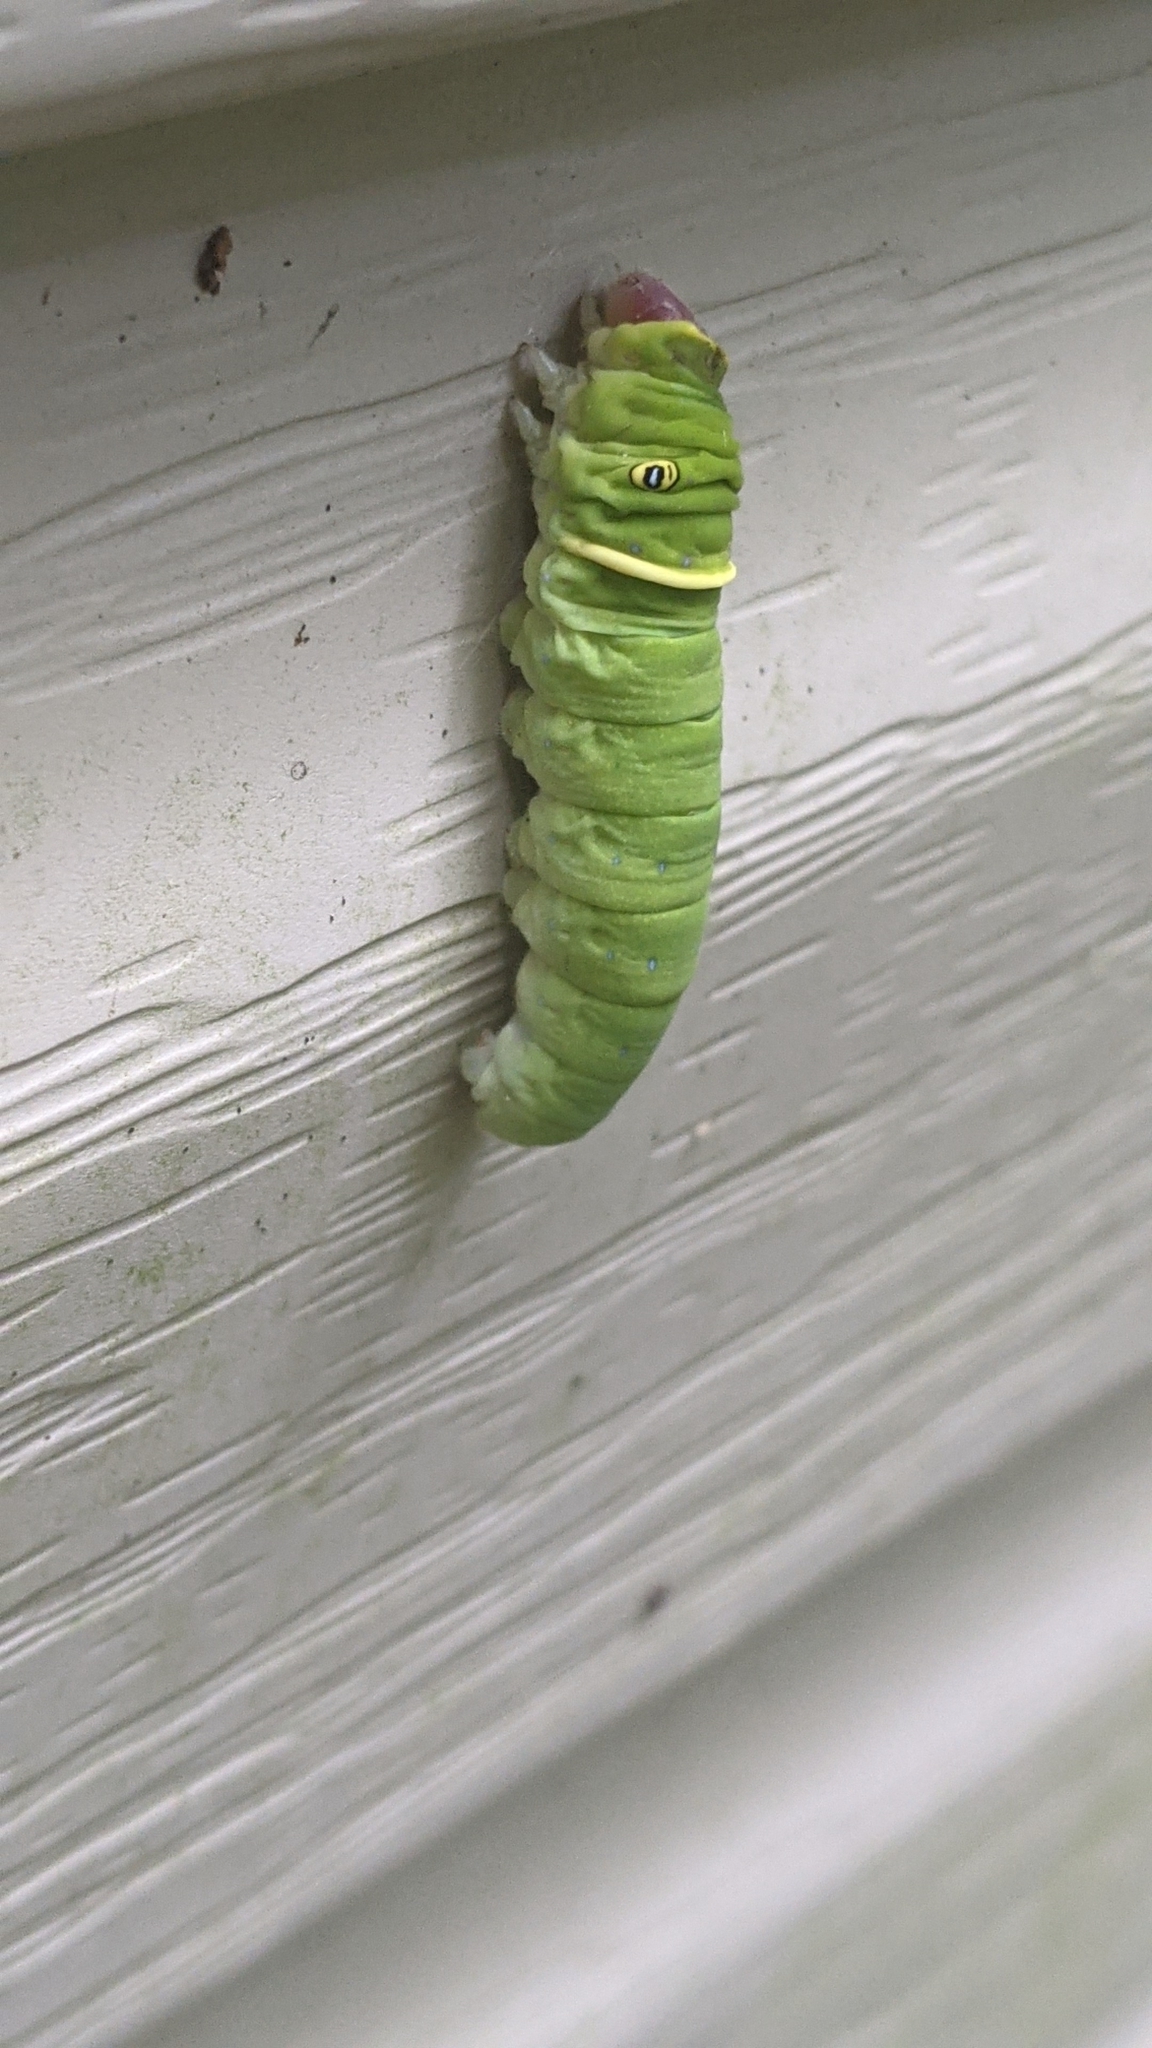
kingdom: Animalia
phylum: Arthropoda
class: Insecta
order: Lepidoptera
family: Papilionidae
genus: Papilio
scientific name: Papilio glaucus
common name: Tiger swallowtail
